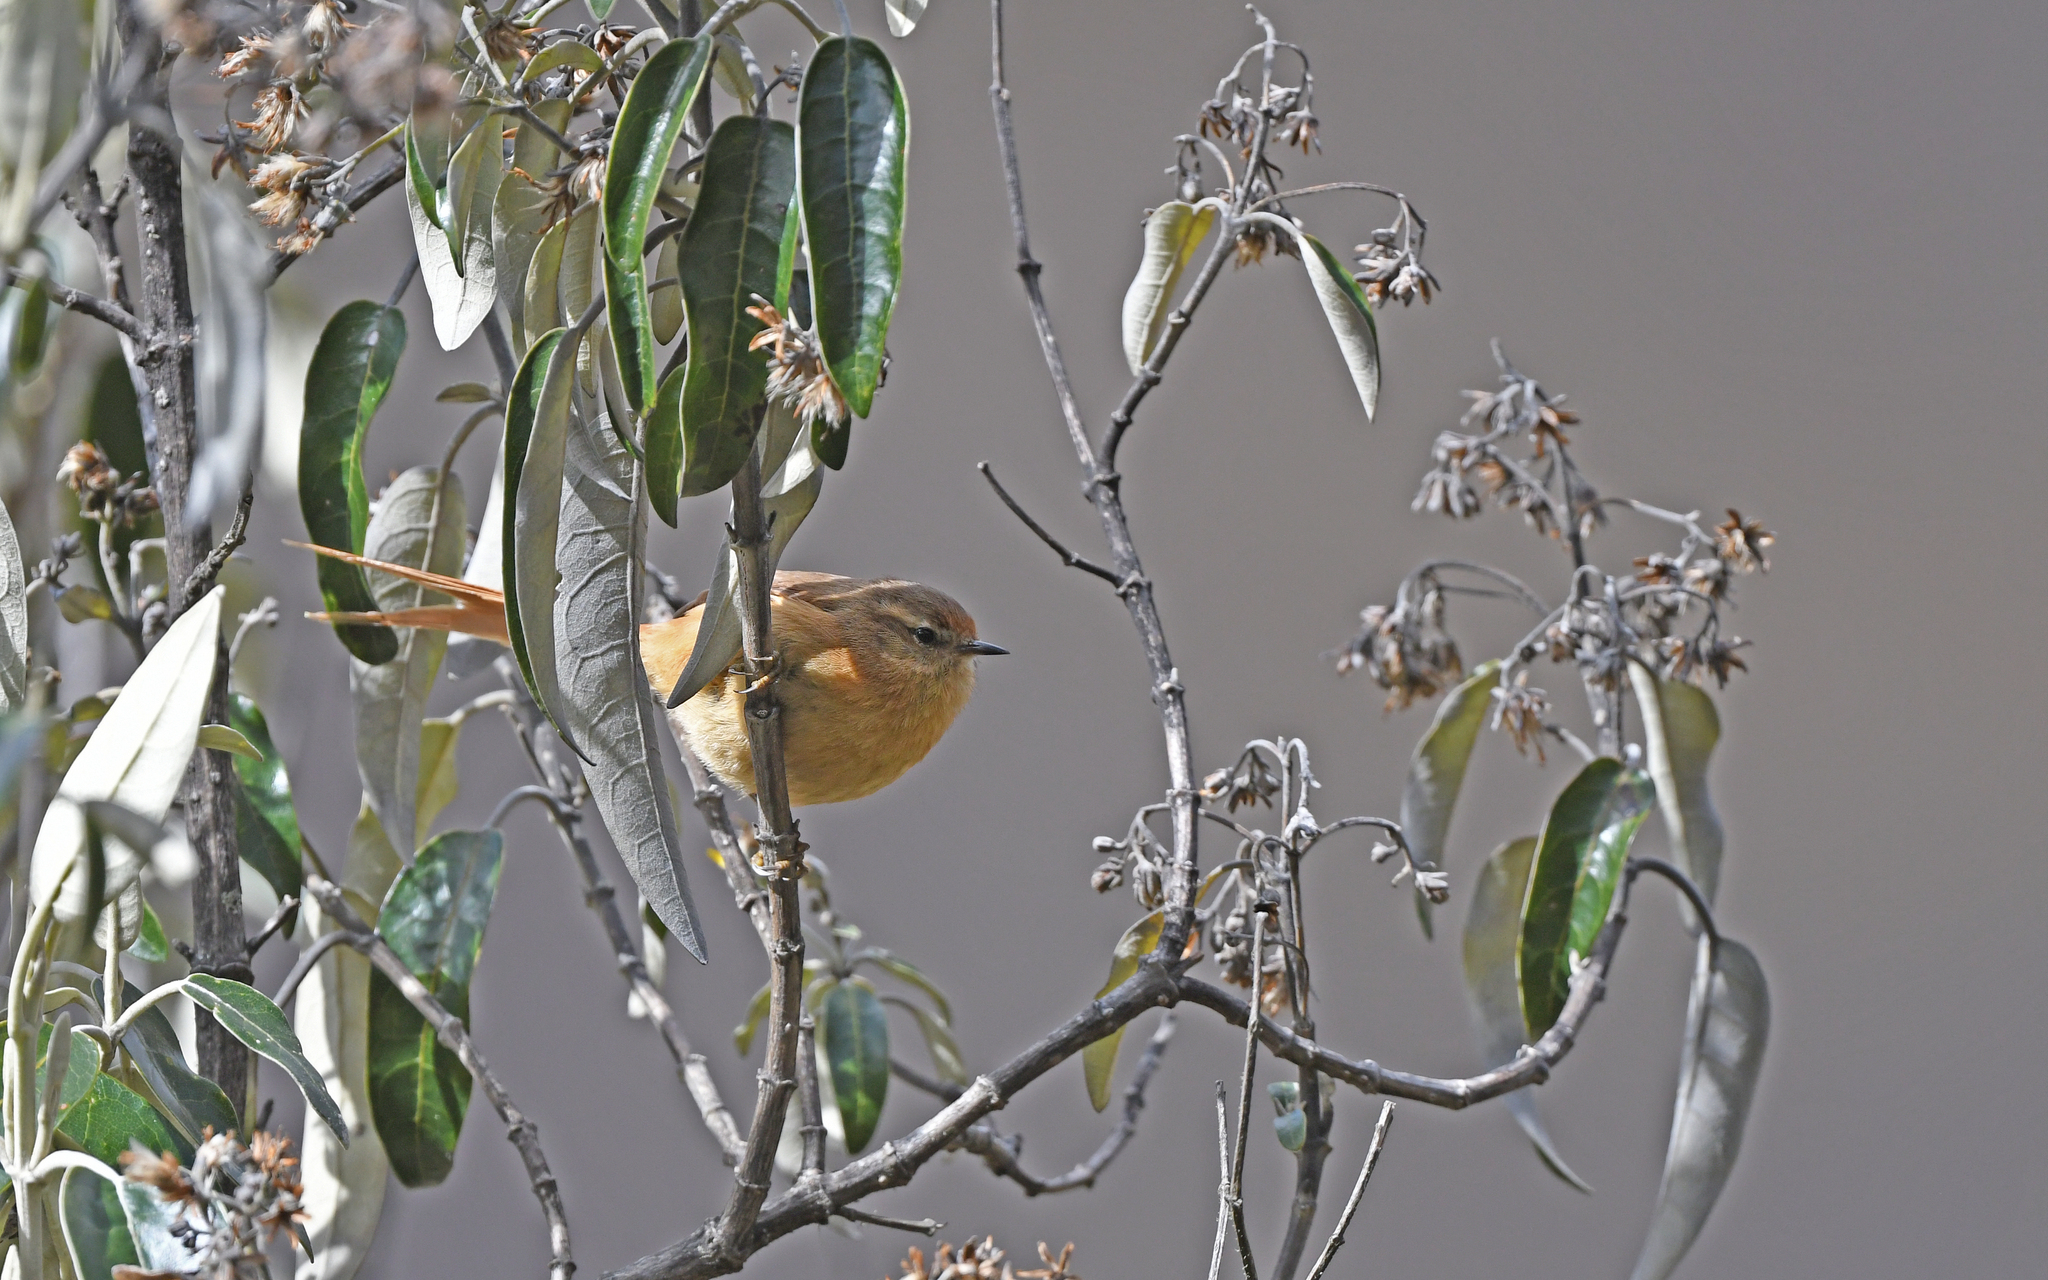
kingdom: Animalia
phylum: Chordata
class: Aves
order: Passeriformes
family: Furnariidae
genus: Leptasthenura
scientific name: Leptasthenura yanacensis
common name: Tawny tit-spinetail
